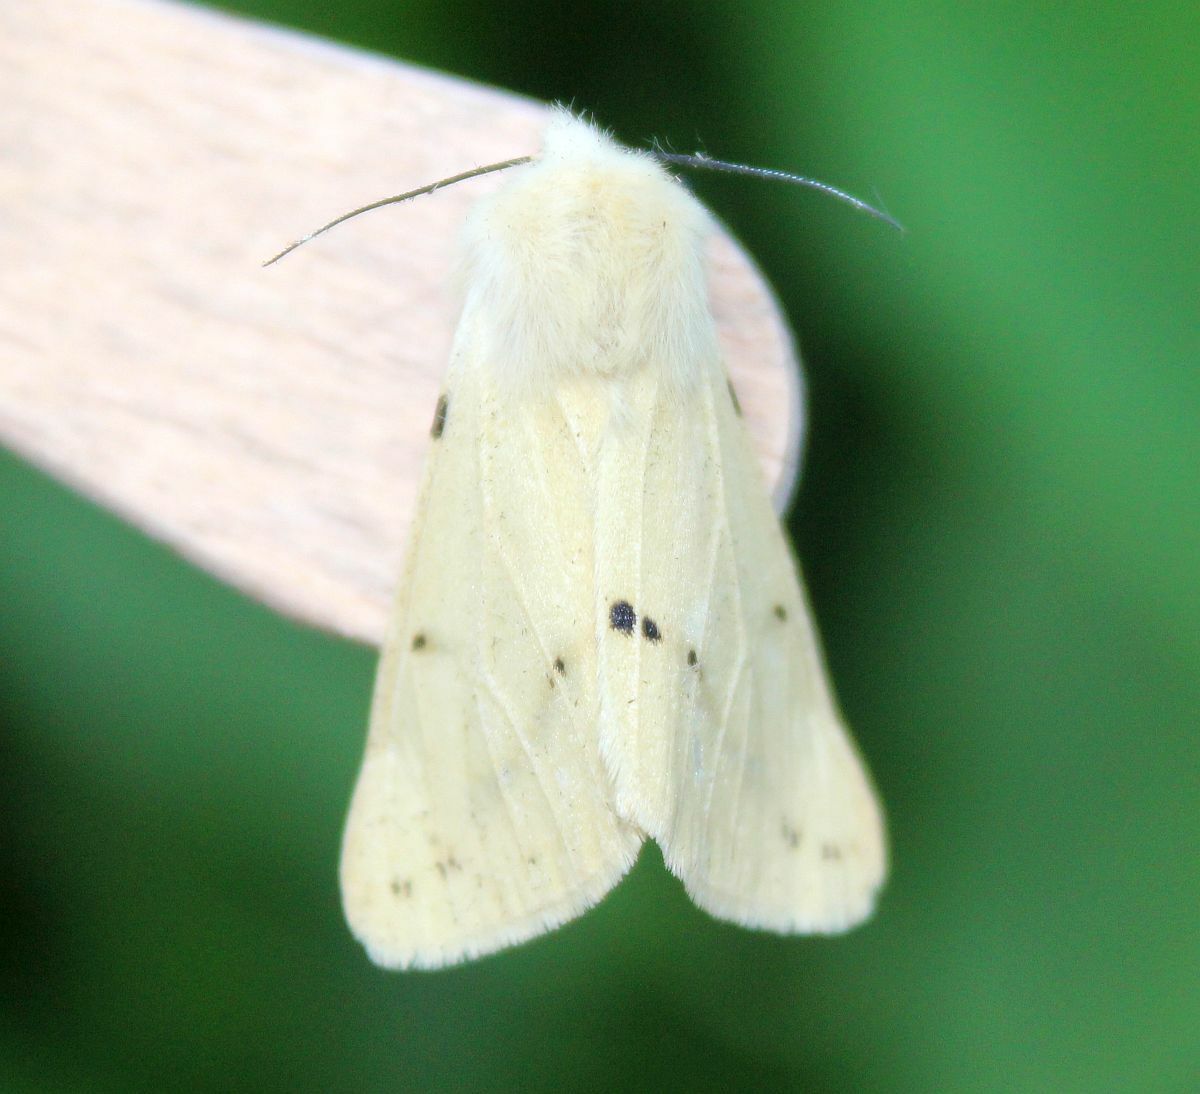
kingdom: Animalia
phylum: Arthropoda
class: Insecta
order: Lepidoptera
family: Erebidae
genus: Spilarctia
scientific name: Spilarctia lutea
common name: Buff ermine
